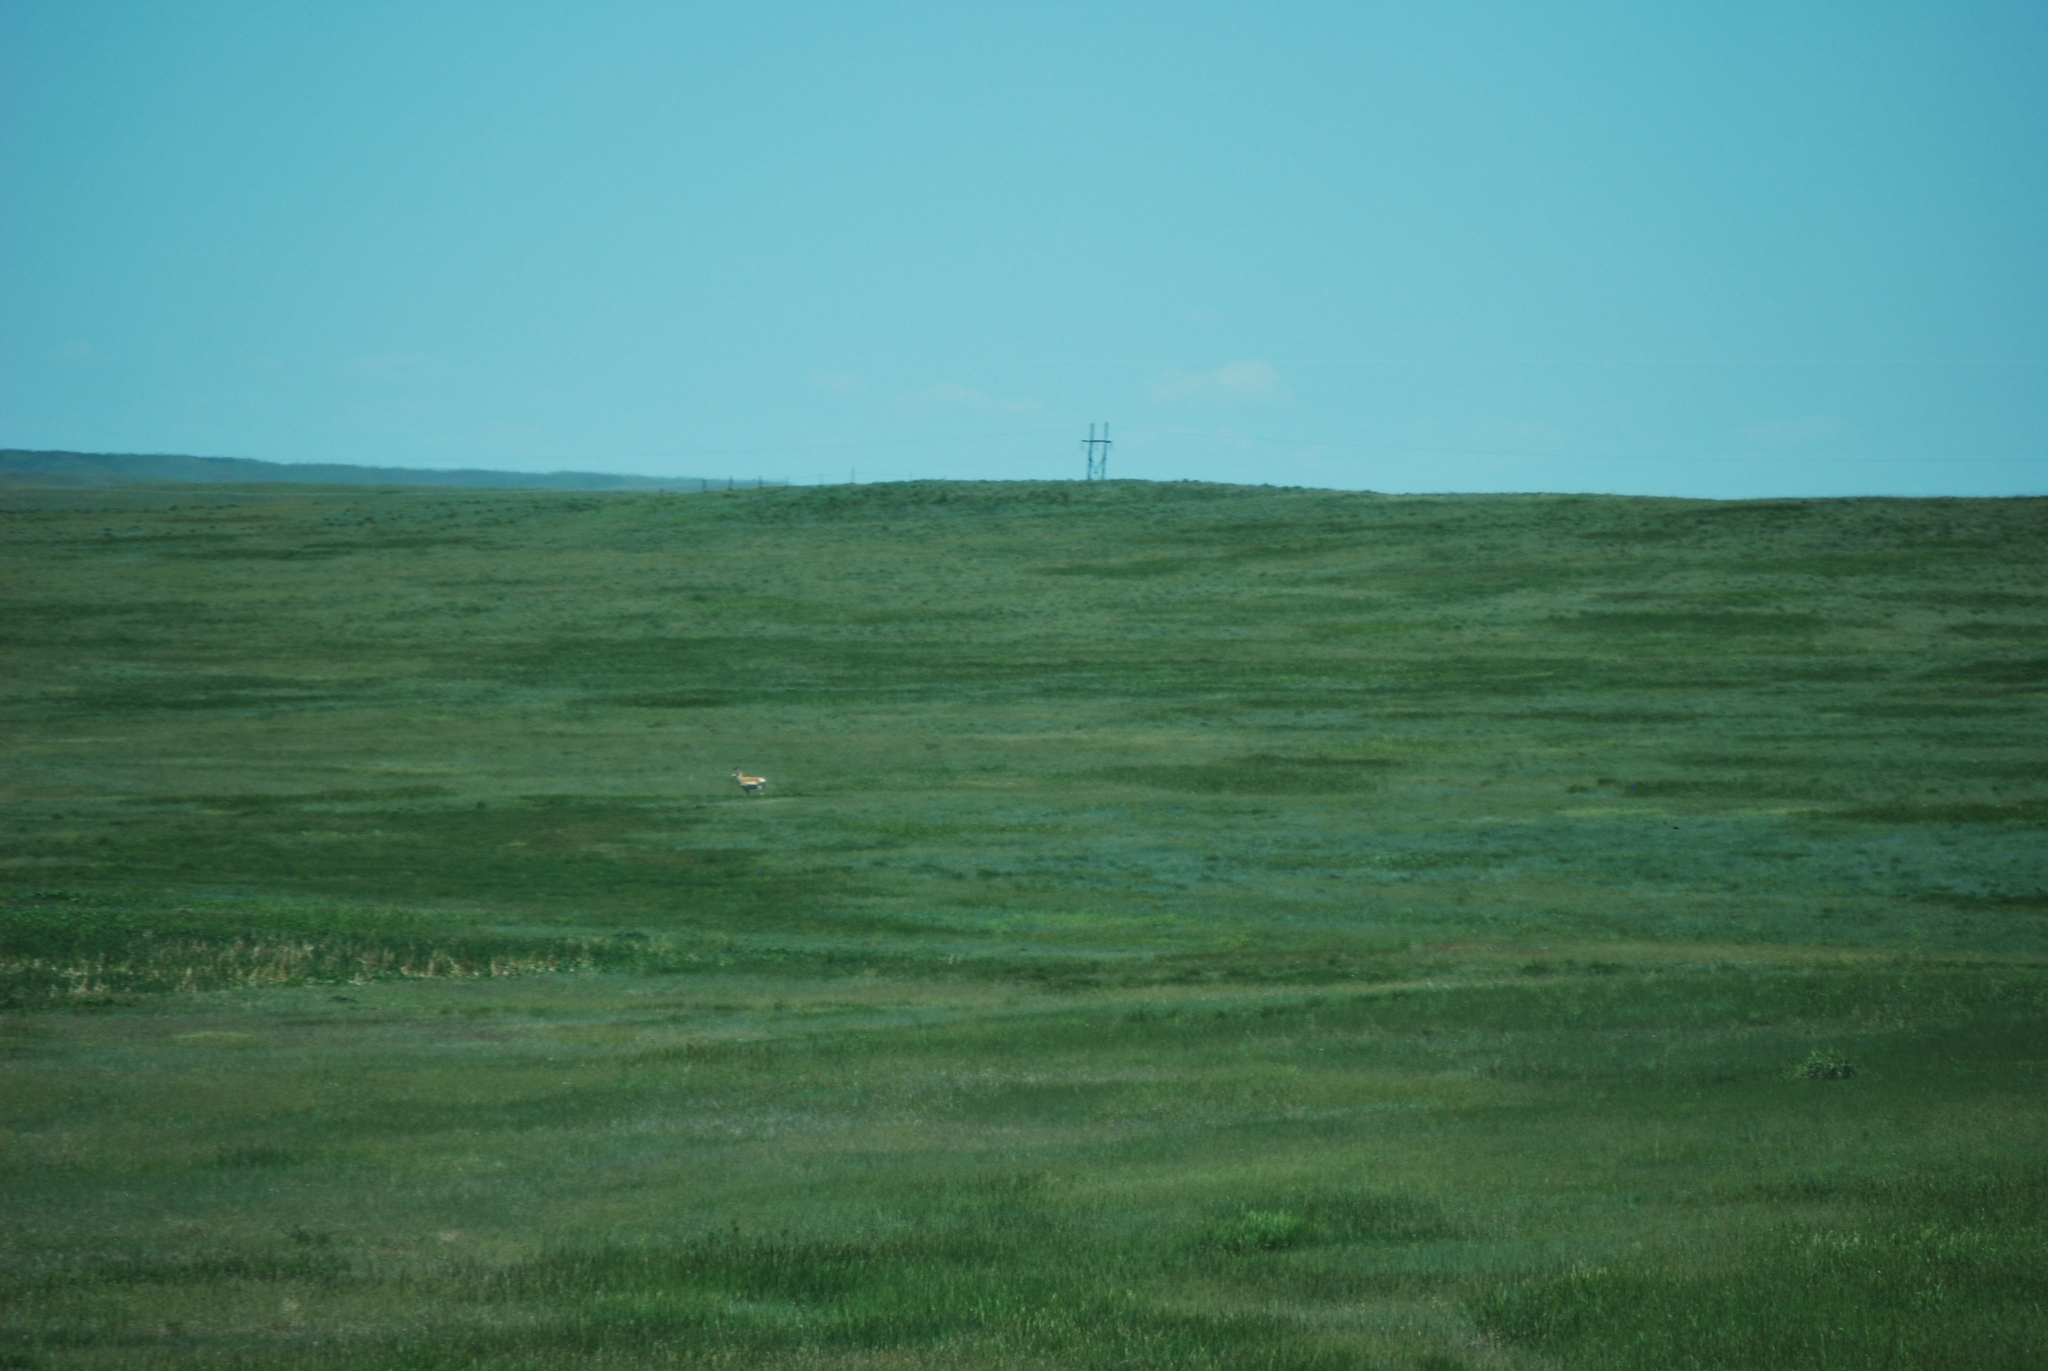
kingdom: Animalia
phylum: Chordata
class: Mammalia
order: Artiodactyla
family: Antilocapridae
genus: Antilocapra
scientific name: Antilocapra americana
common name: Pronghorn
